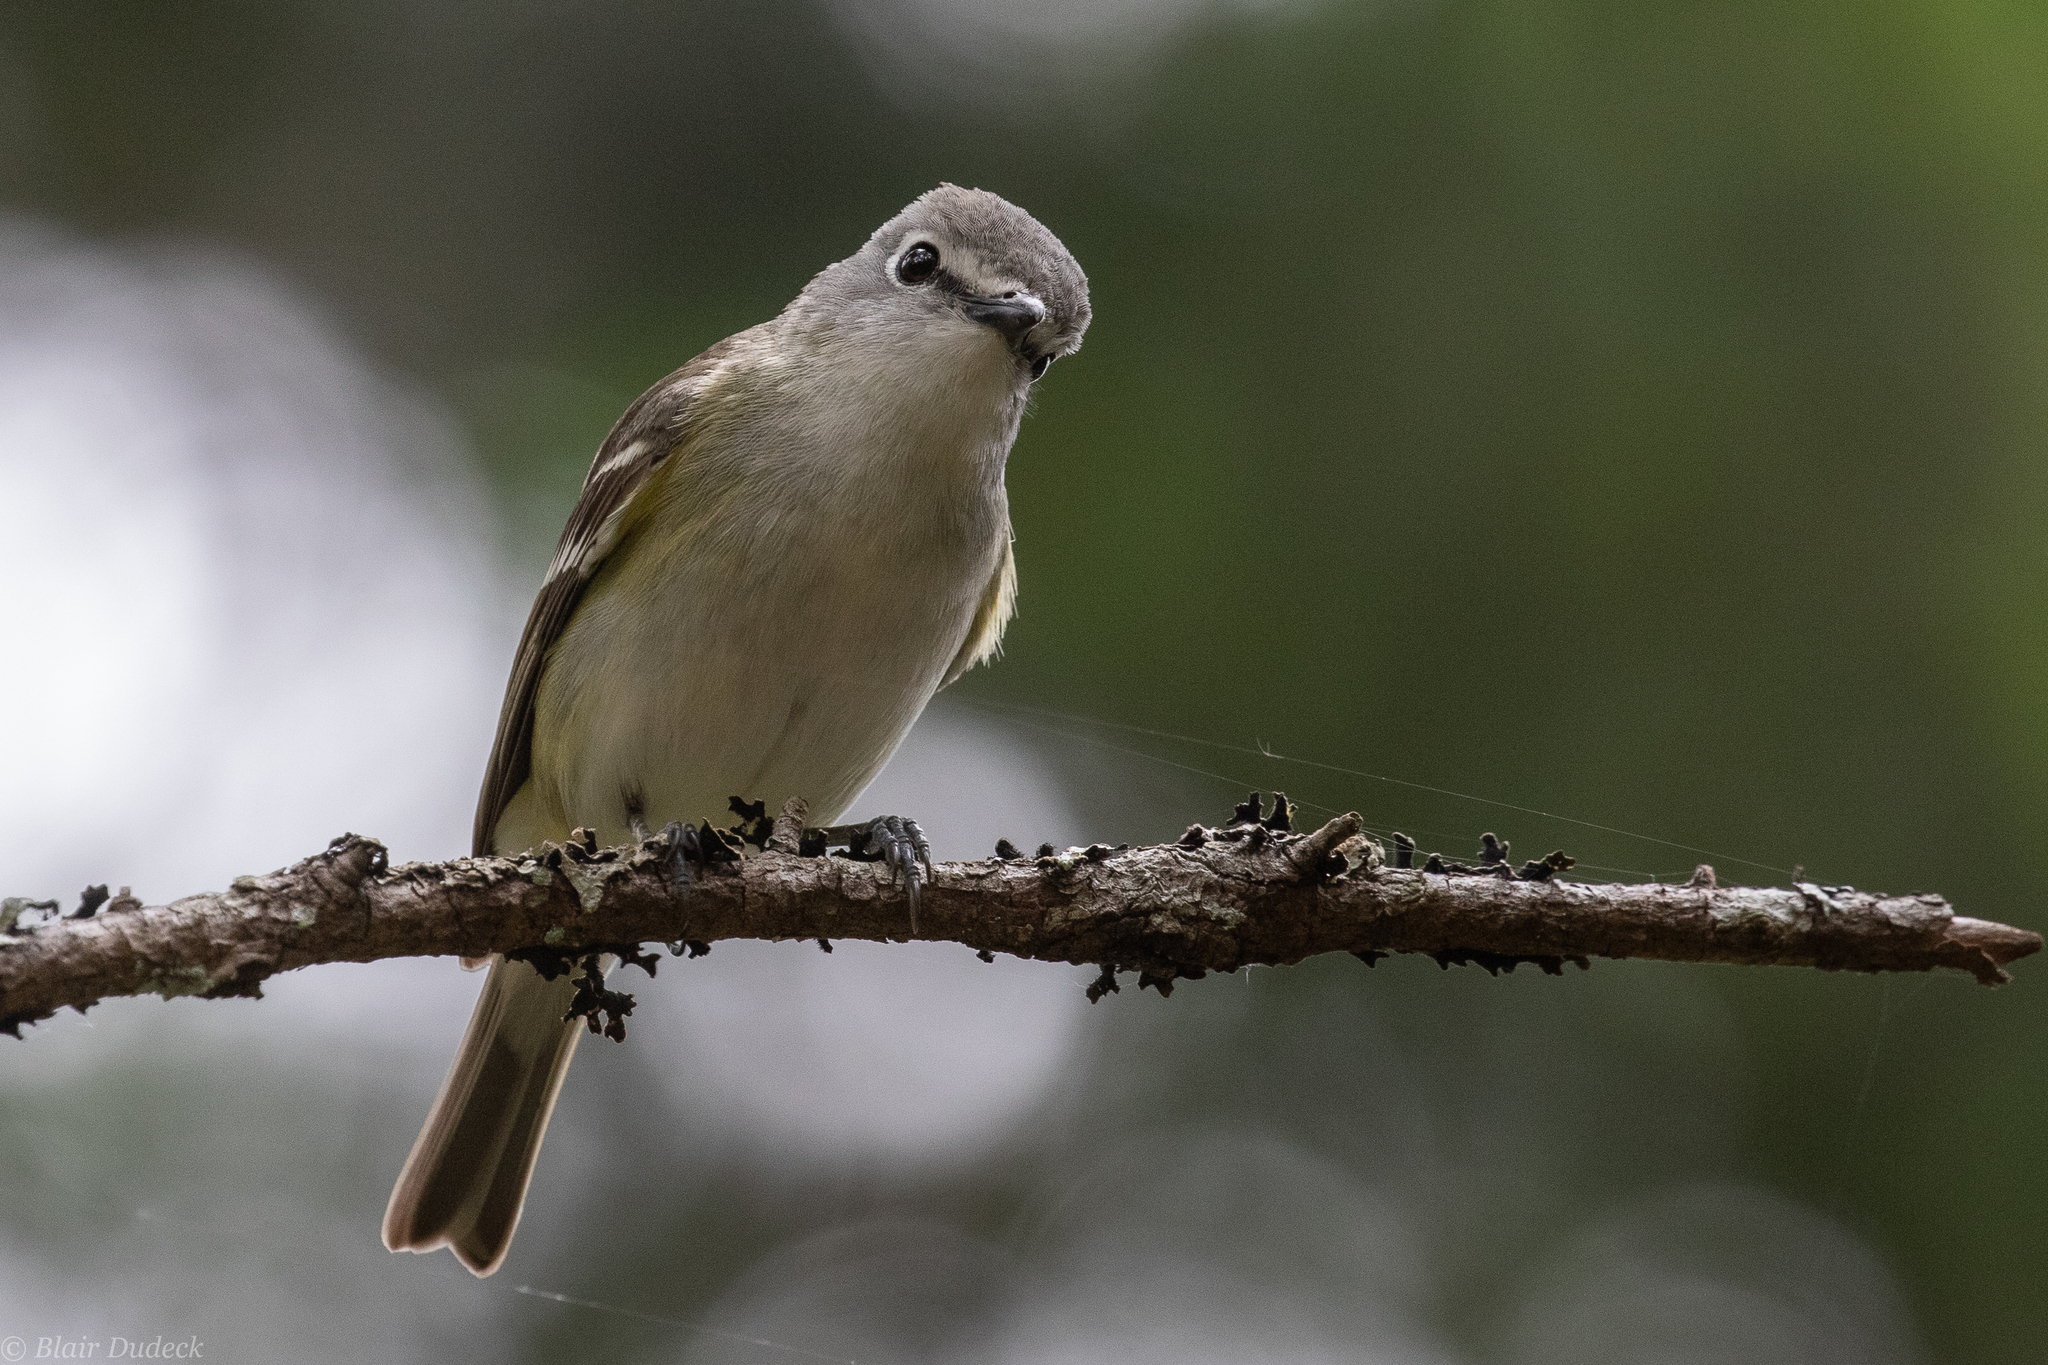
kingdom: Animalia
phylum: Chordata
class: Aves
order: Passeriformes
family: Vireonidae
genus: Vireo
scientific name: Vireo cassinii
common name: Cassin's vireo
